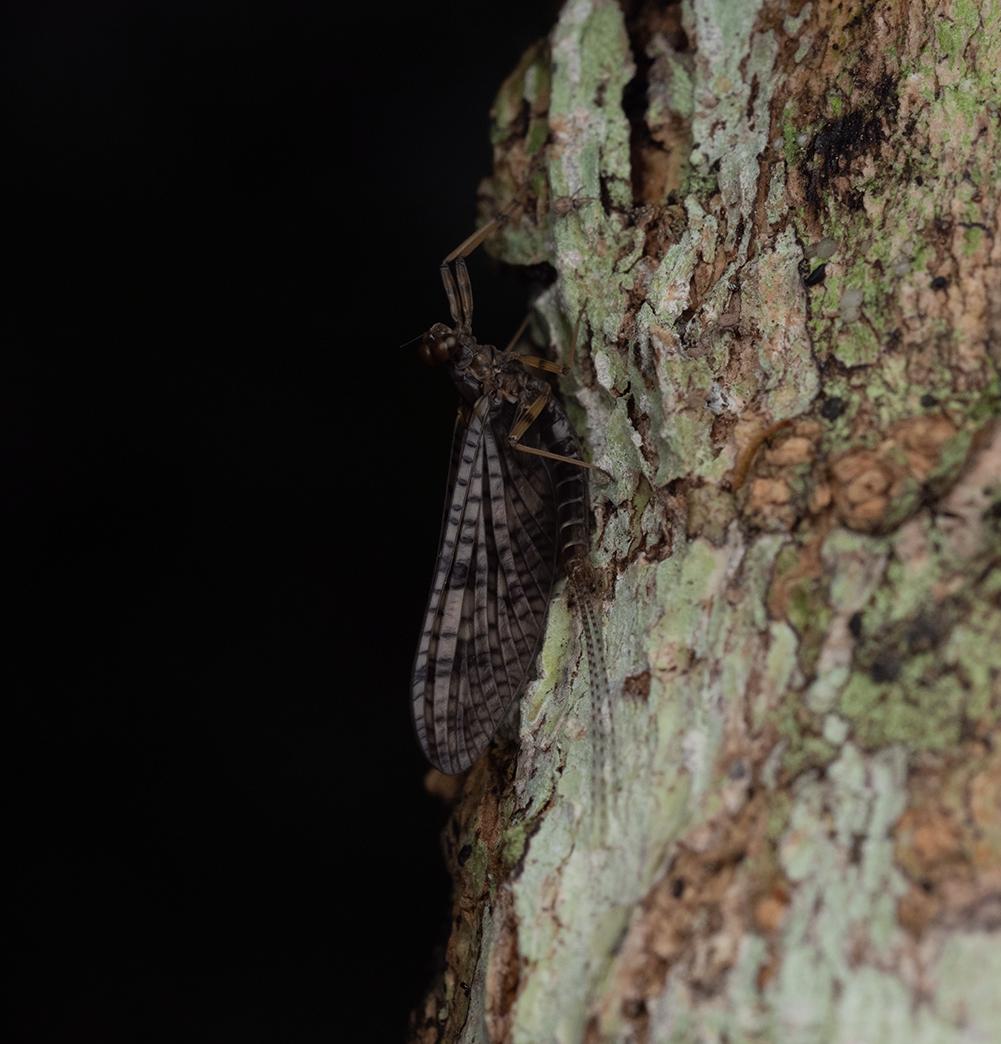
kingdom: Animalia
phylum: Arthropoda
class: Insecta
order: Ephemeroptera
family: Leptophlebiidae
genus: Neozephlebia
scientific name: Neozephlebia scita
